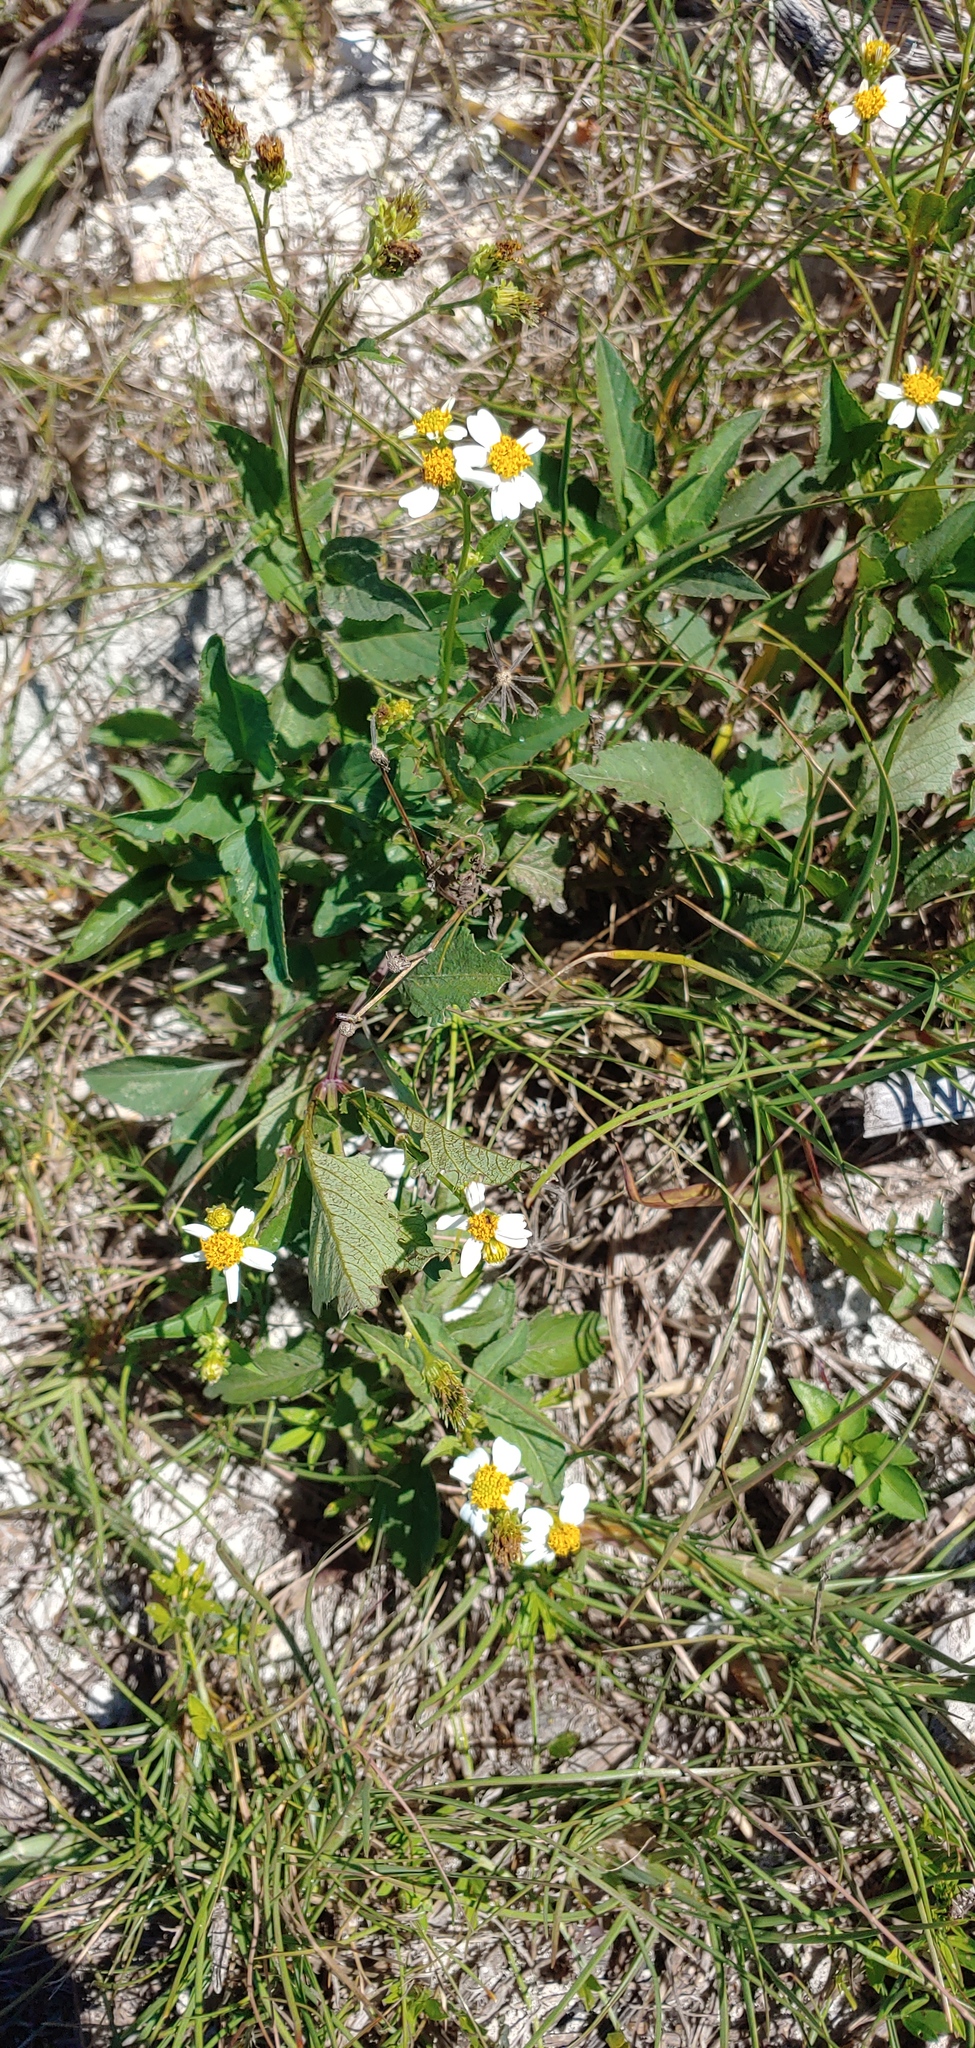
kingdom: Plantae
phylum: Tracheophyta
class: Magnoliopsida
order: Asterales
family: Asteraceae
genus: Bidens
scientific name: Bidens pilosa
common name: Black-jack
